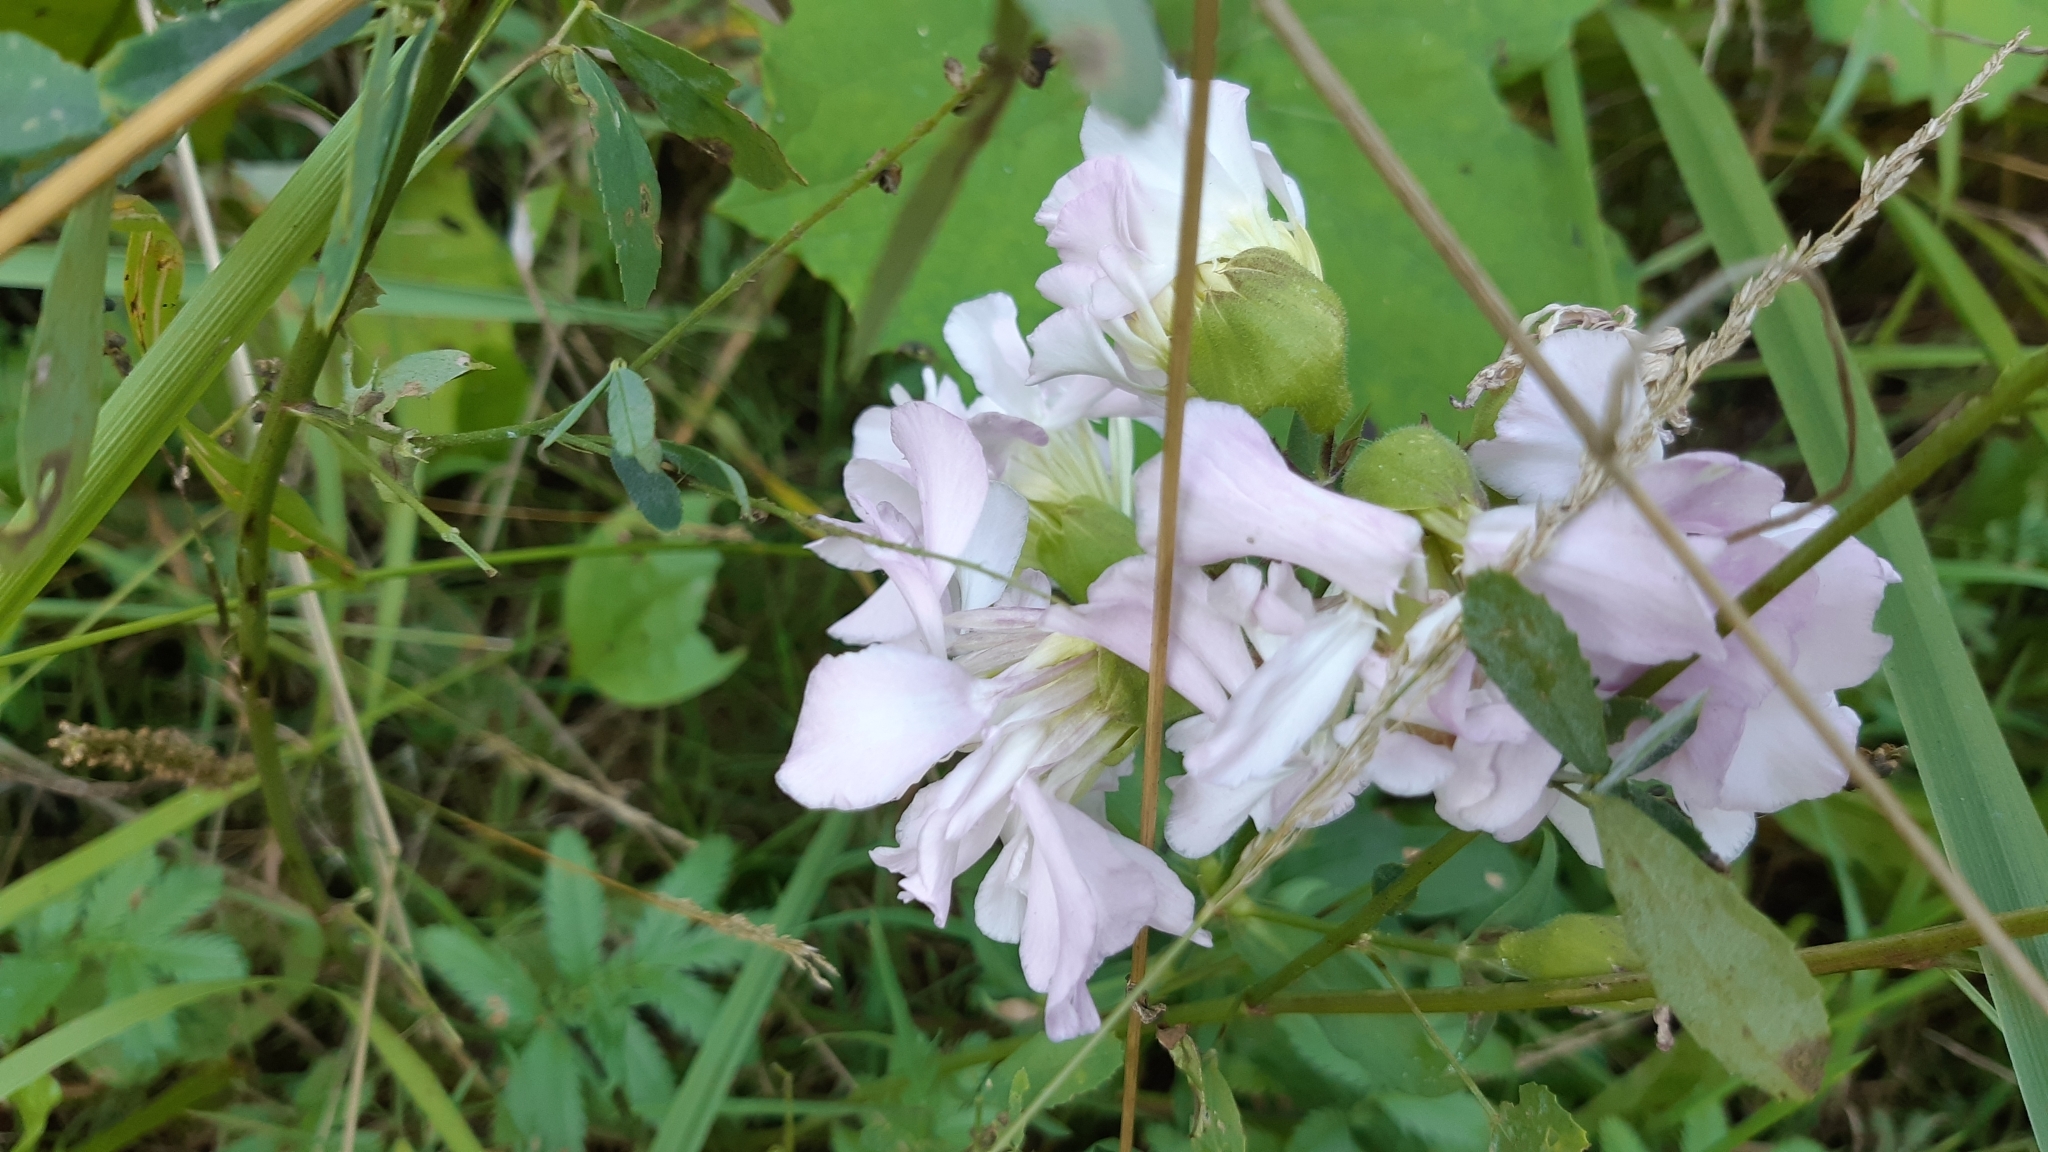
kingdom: Plantae
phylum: Tracheophyta
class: Magnoliopsida
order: Caryophyllales
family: Caryophyllaceae
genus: Saponaria
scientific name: Saponaria officinalis
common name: Soapwort
